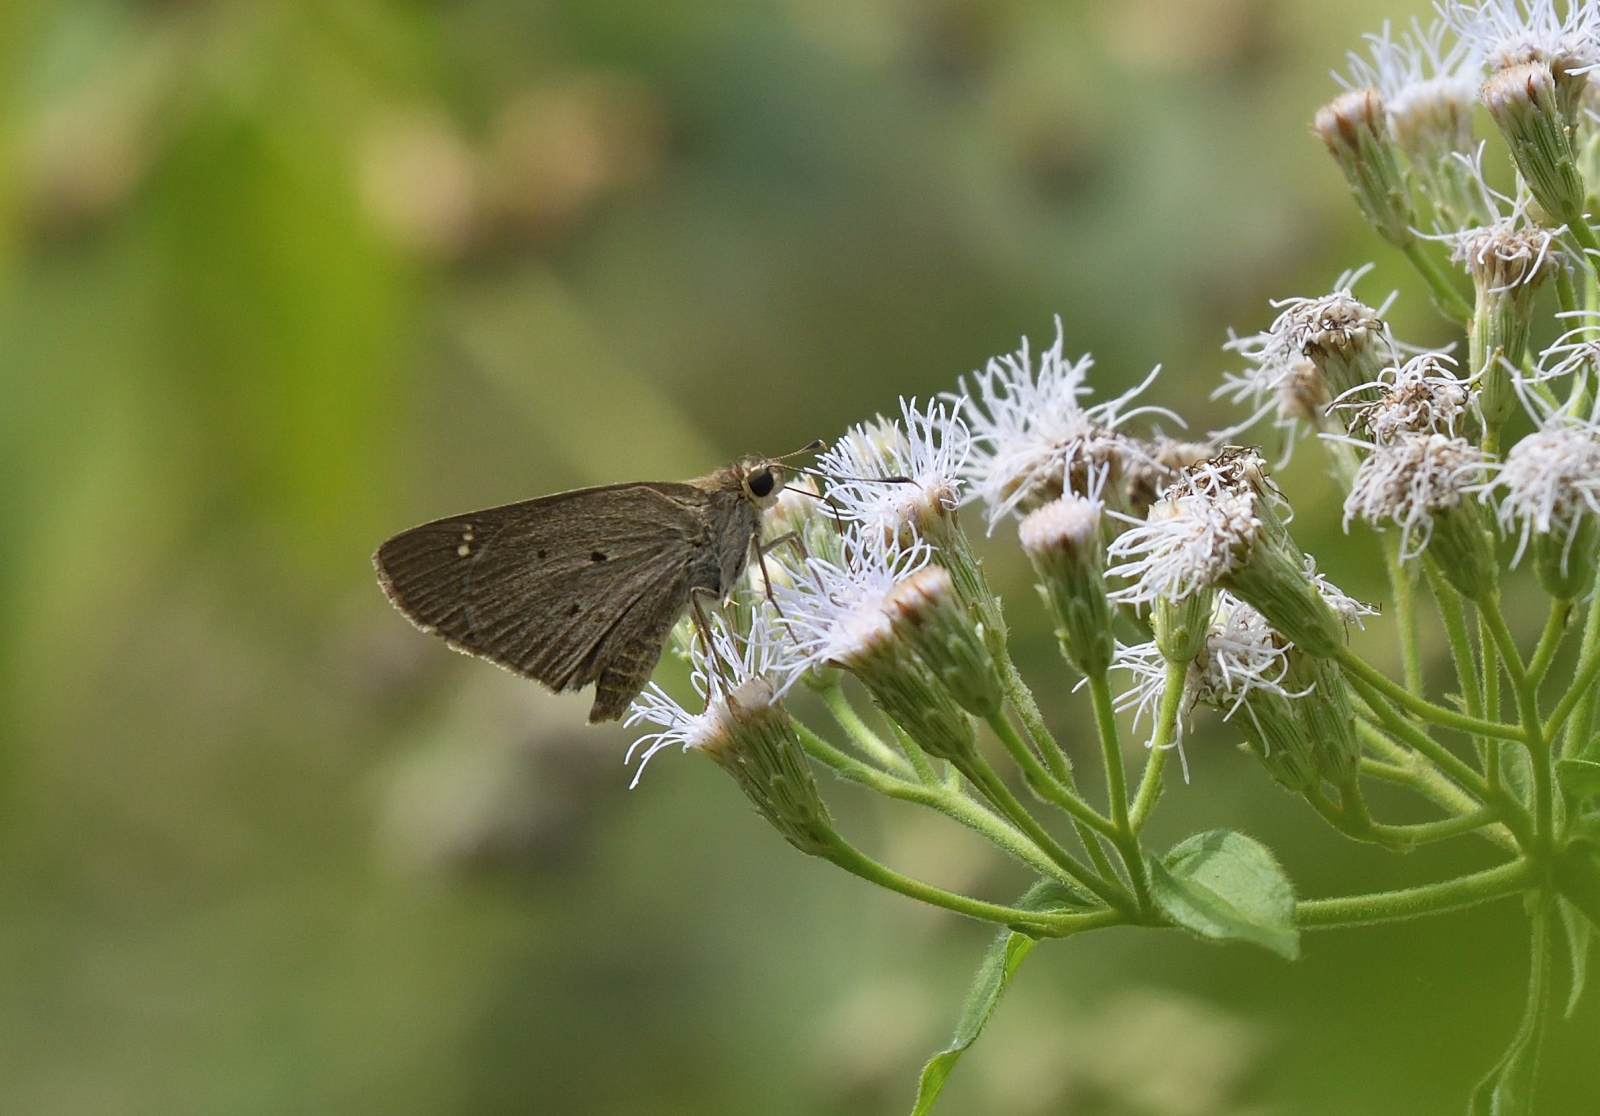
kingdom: Animalia
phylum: Arthropoda
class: Insecta
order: Lepidoptera
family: Hesperiidae
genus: Suastus
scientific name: Suastus gremius
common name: Indian palm bob
